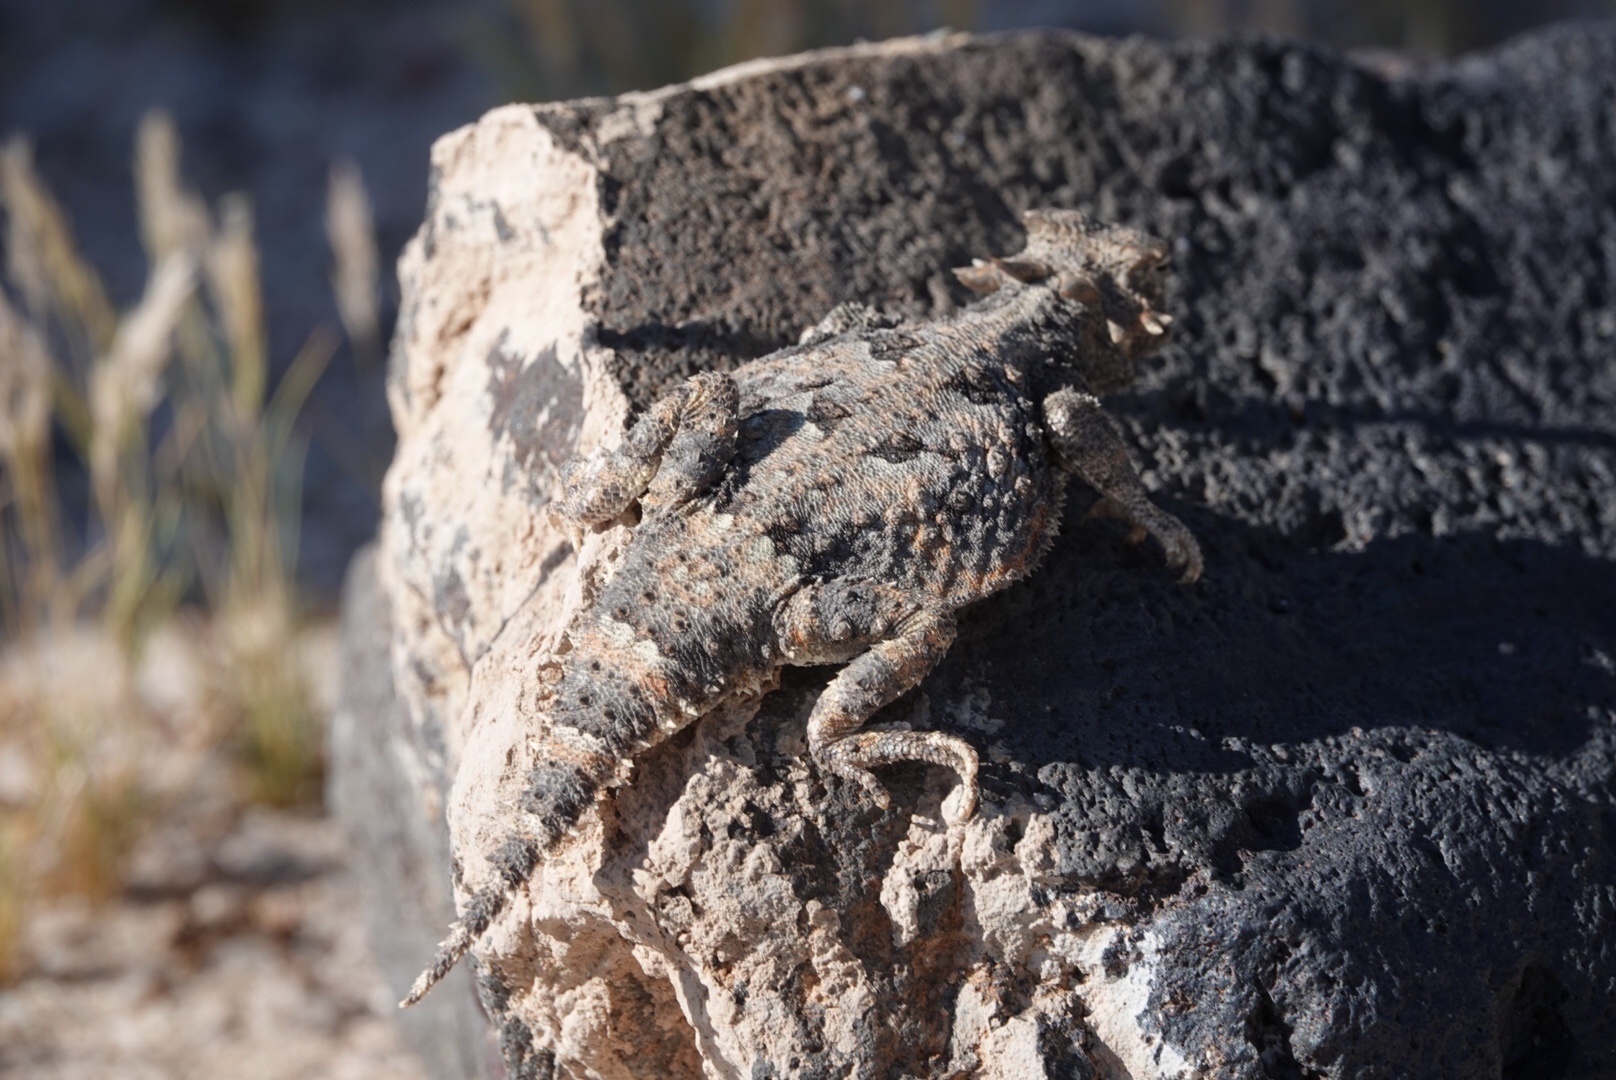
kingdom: Animalia
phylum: Chordata
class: Squamata
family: Phrynosomatidae
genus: Phrynosoma
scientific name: Phrynosoma platyrhinos
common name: Desert horned lizard
